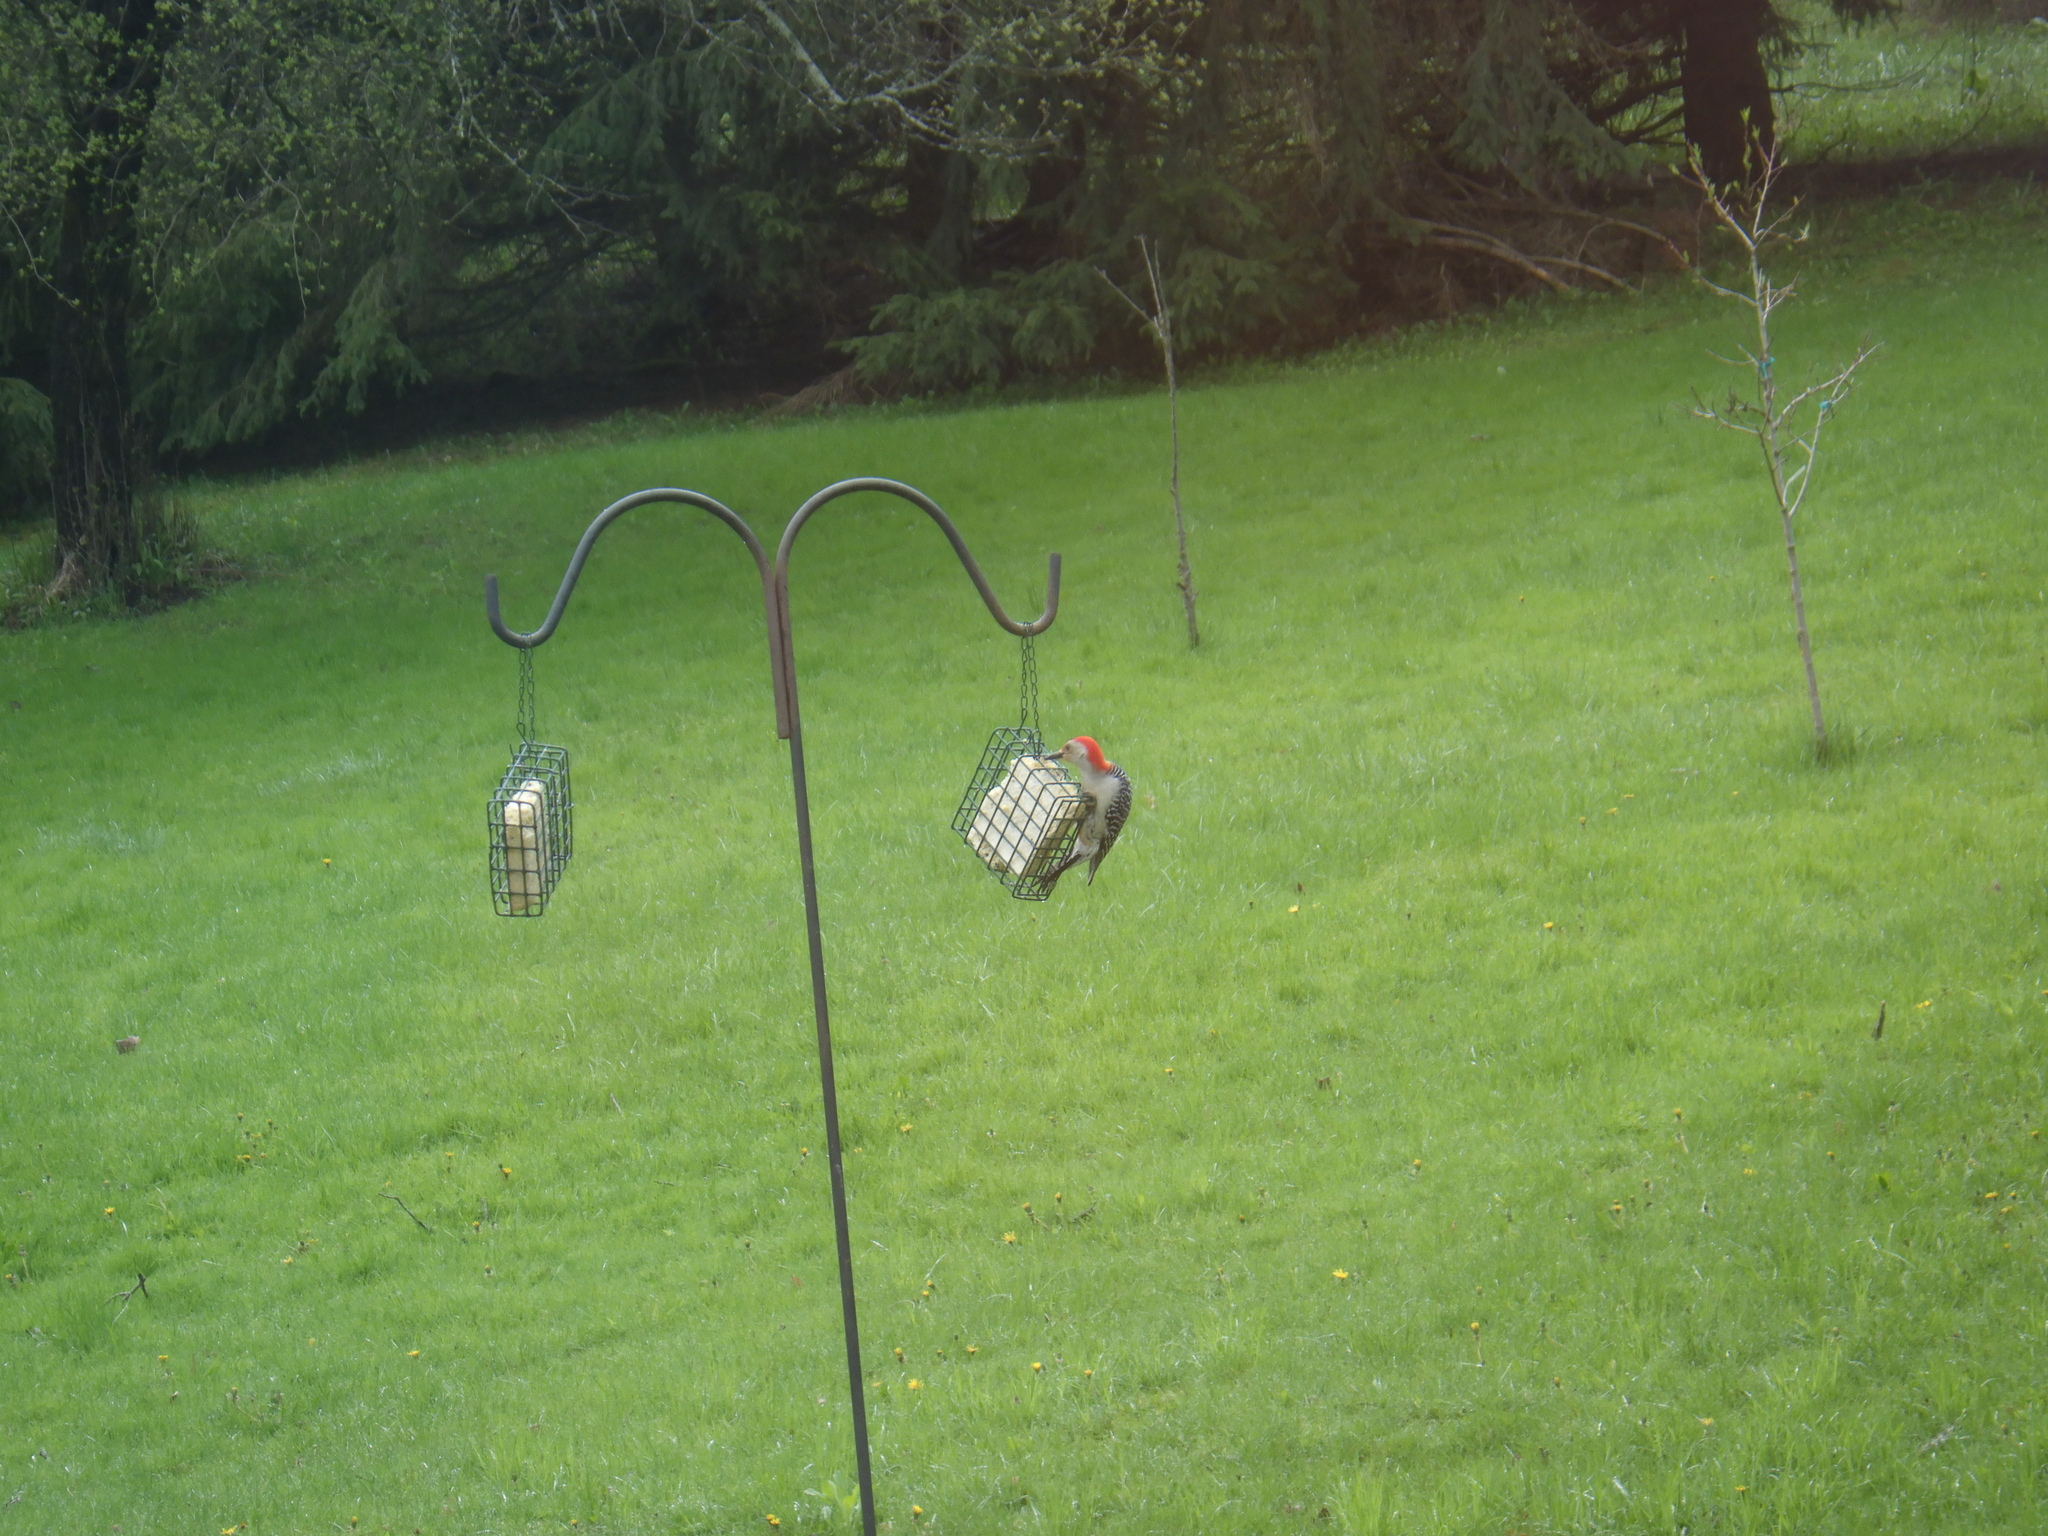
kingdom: Animalia
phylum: Chordata
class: Aves
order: Piciformes
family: Picidae
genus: Melanerpes
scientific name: Melanerpes carolinus
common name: Red-bellied woodpecker
